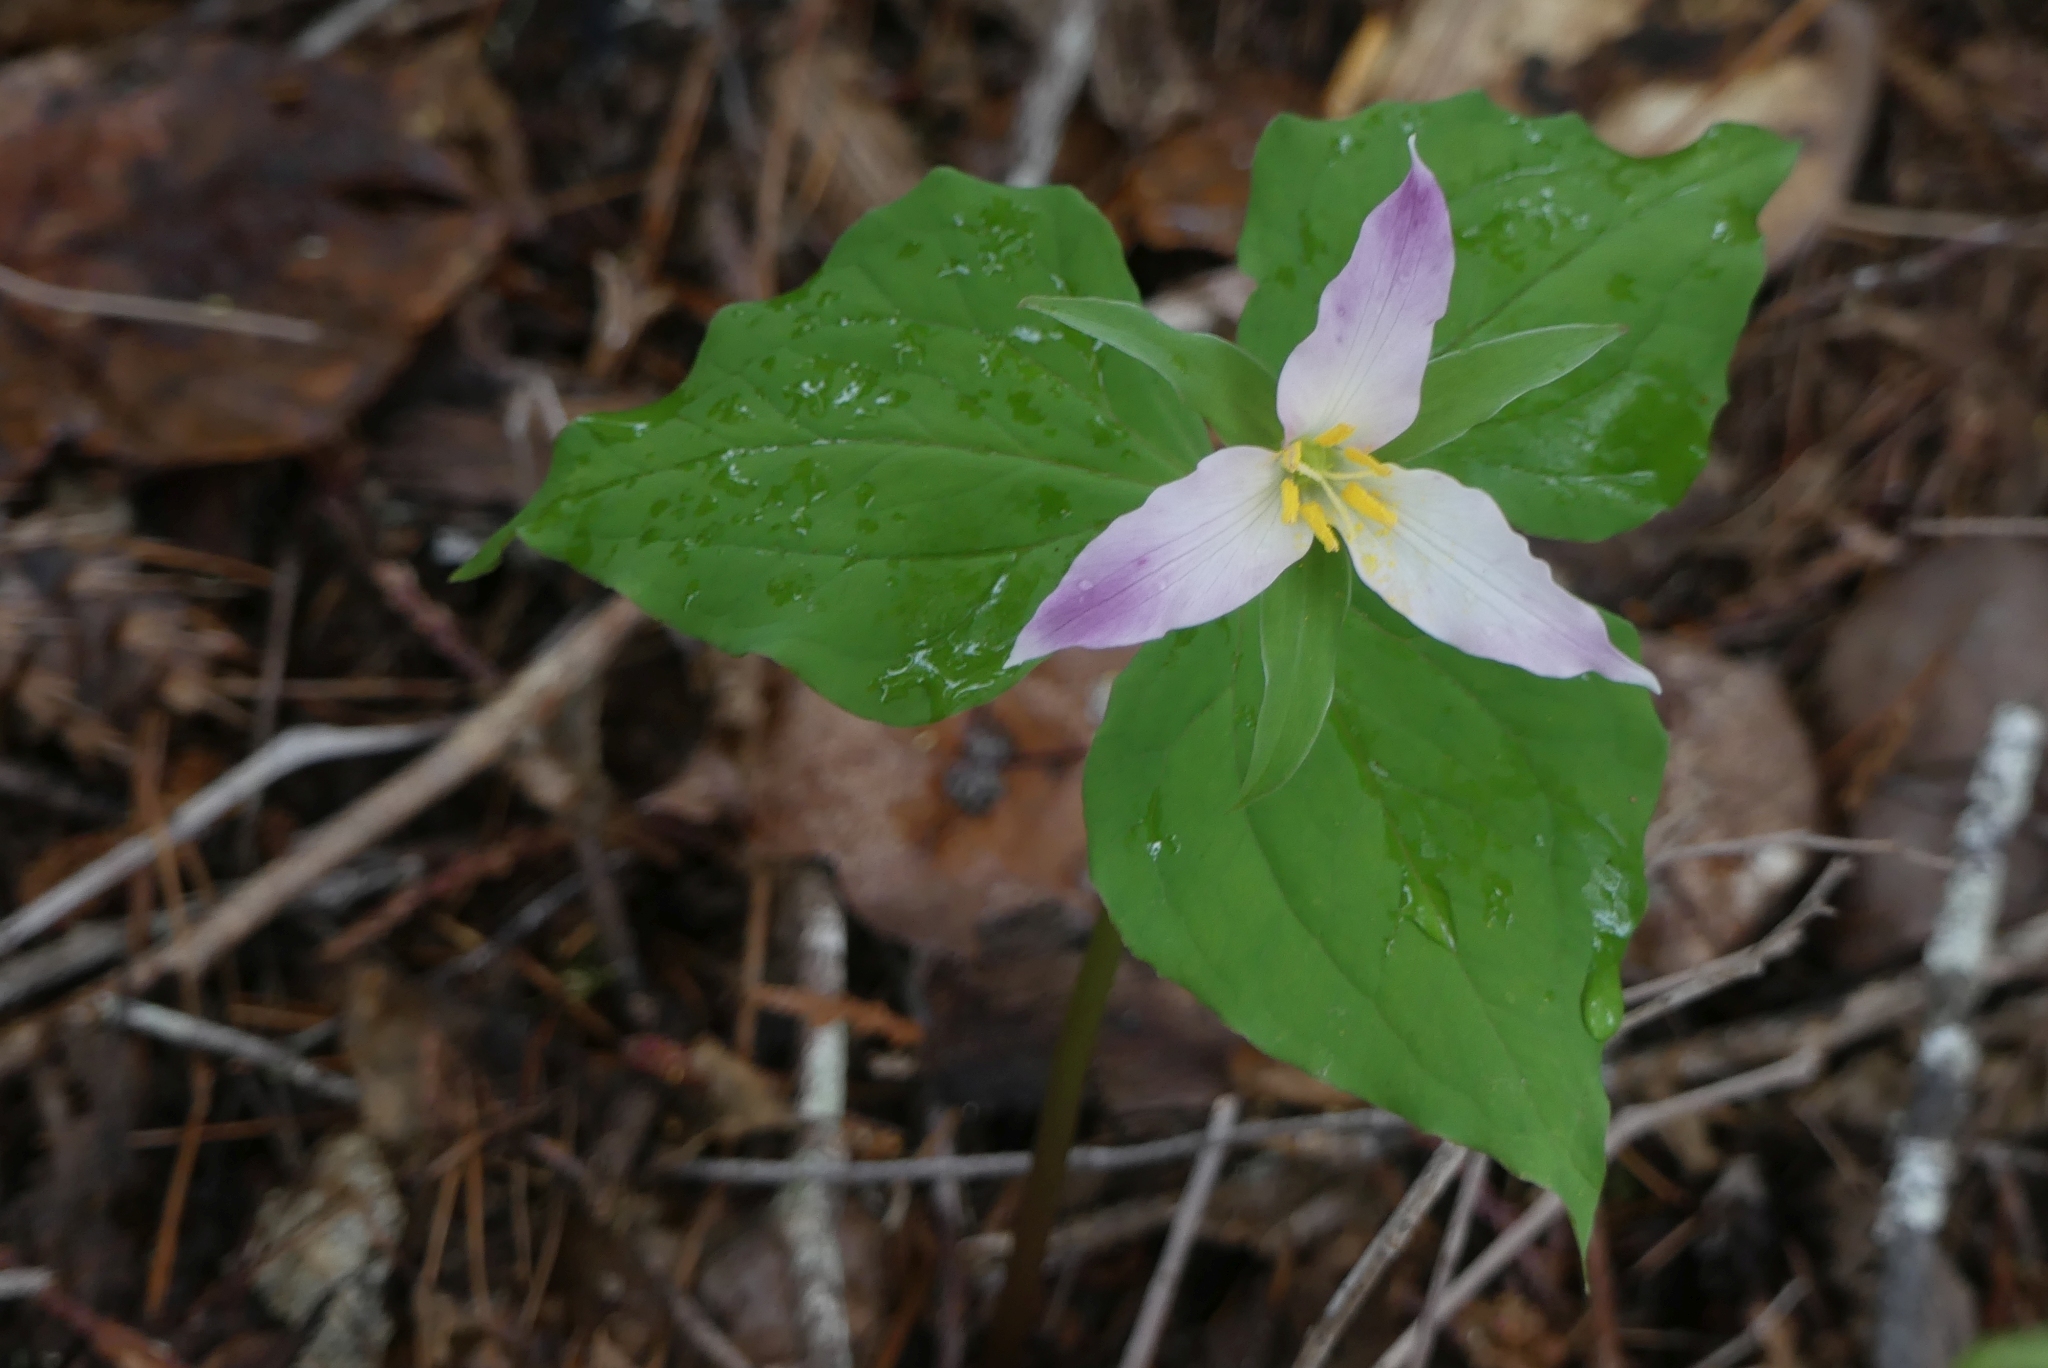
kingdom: Plantae
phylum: Tracheophyta
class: Liliopsida
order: Liliales
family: Melanthiaceae
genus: Trillium
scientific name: Trillium ovatum
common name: Pacific trillium
